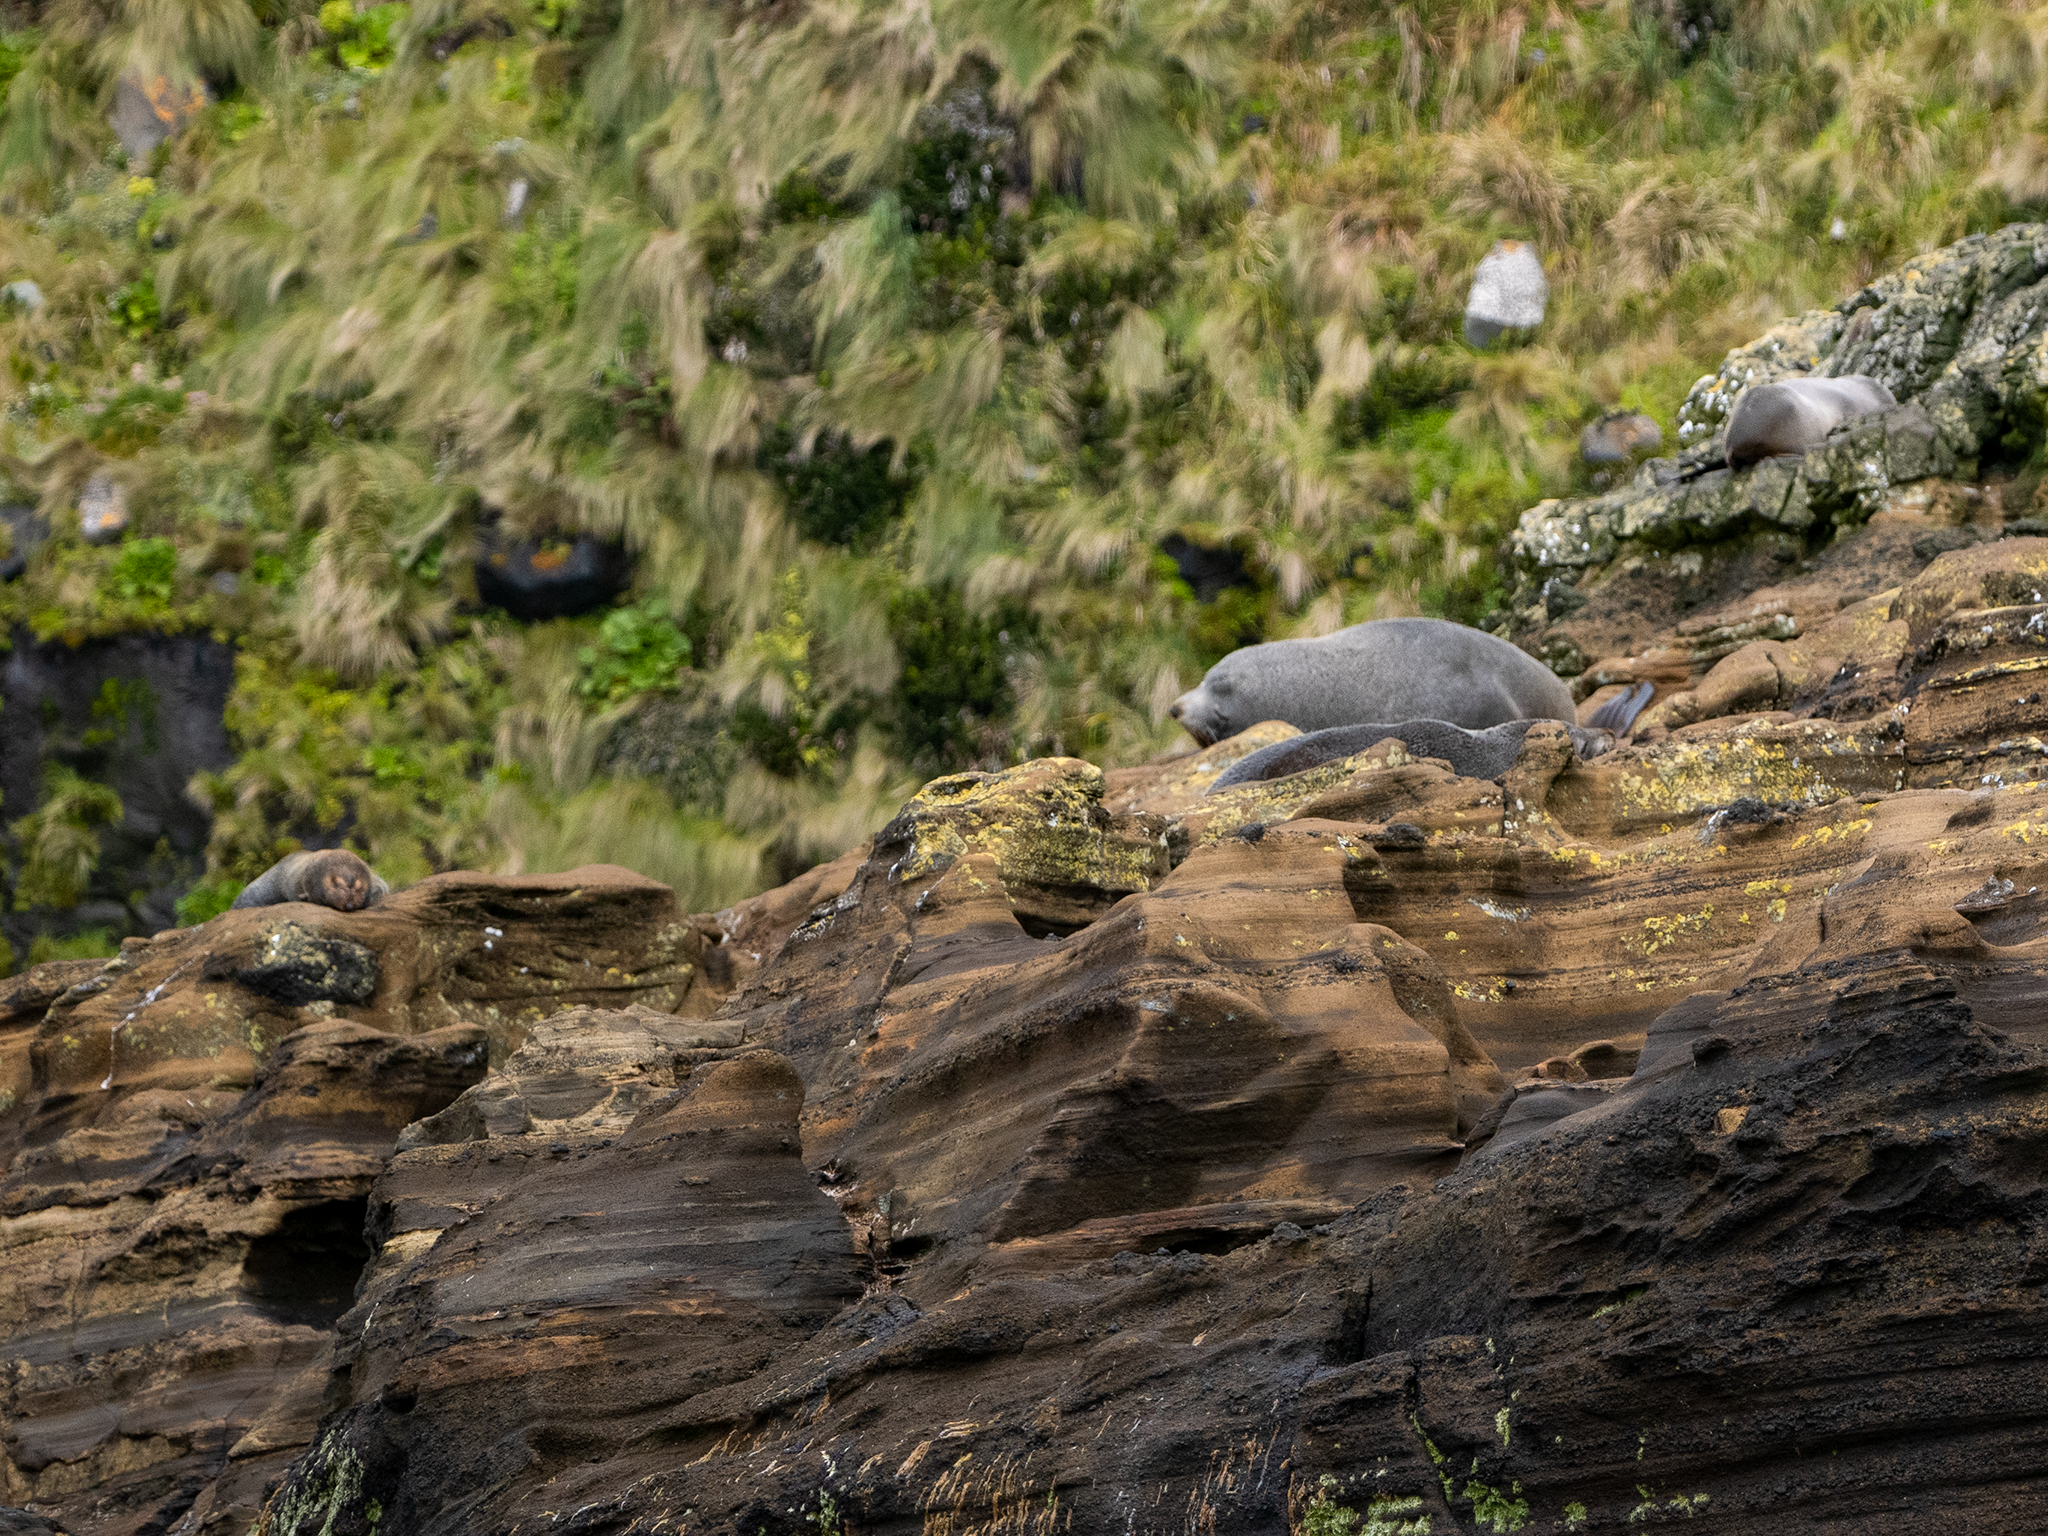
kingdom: Animalia
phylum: Chordata
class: Mammalia
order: Carnivora
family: Otariidae
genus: Arctocephalus
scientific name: Arctocephalus tropicalis
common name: Subantarctic fur seal
